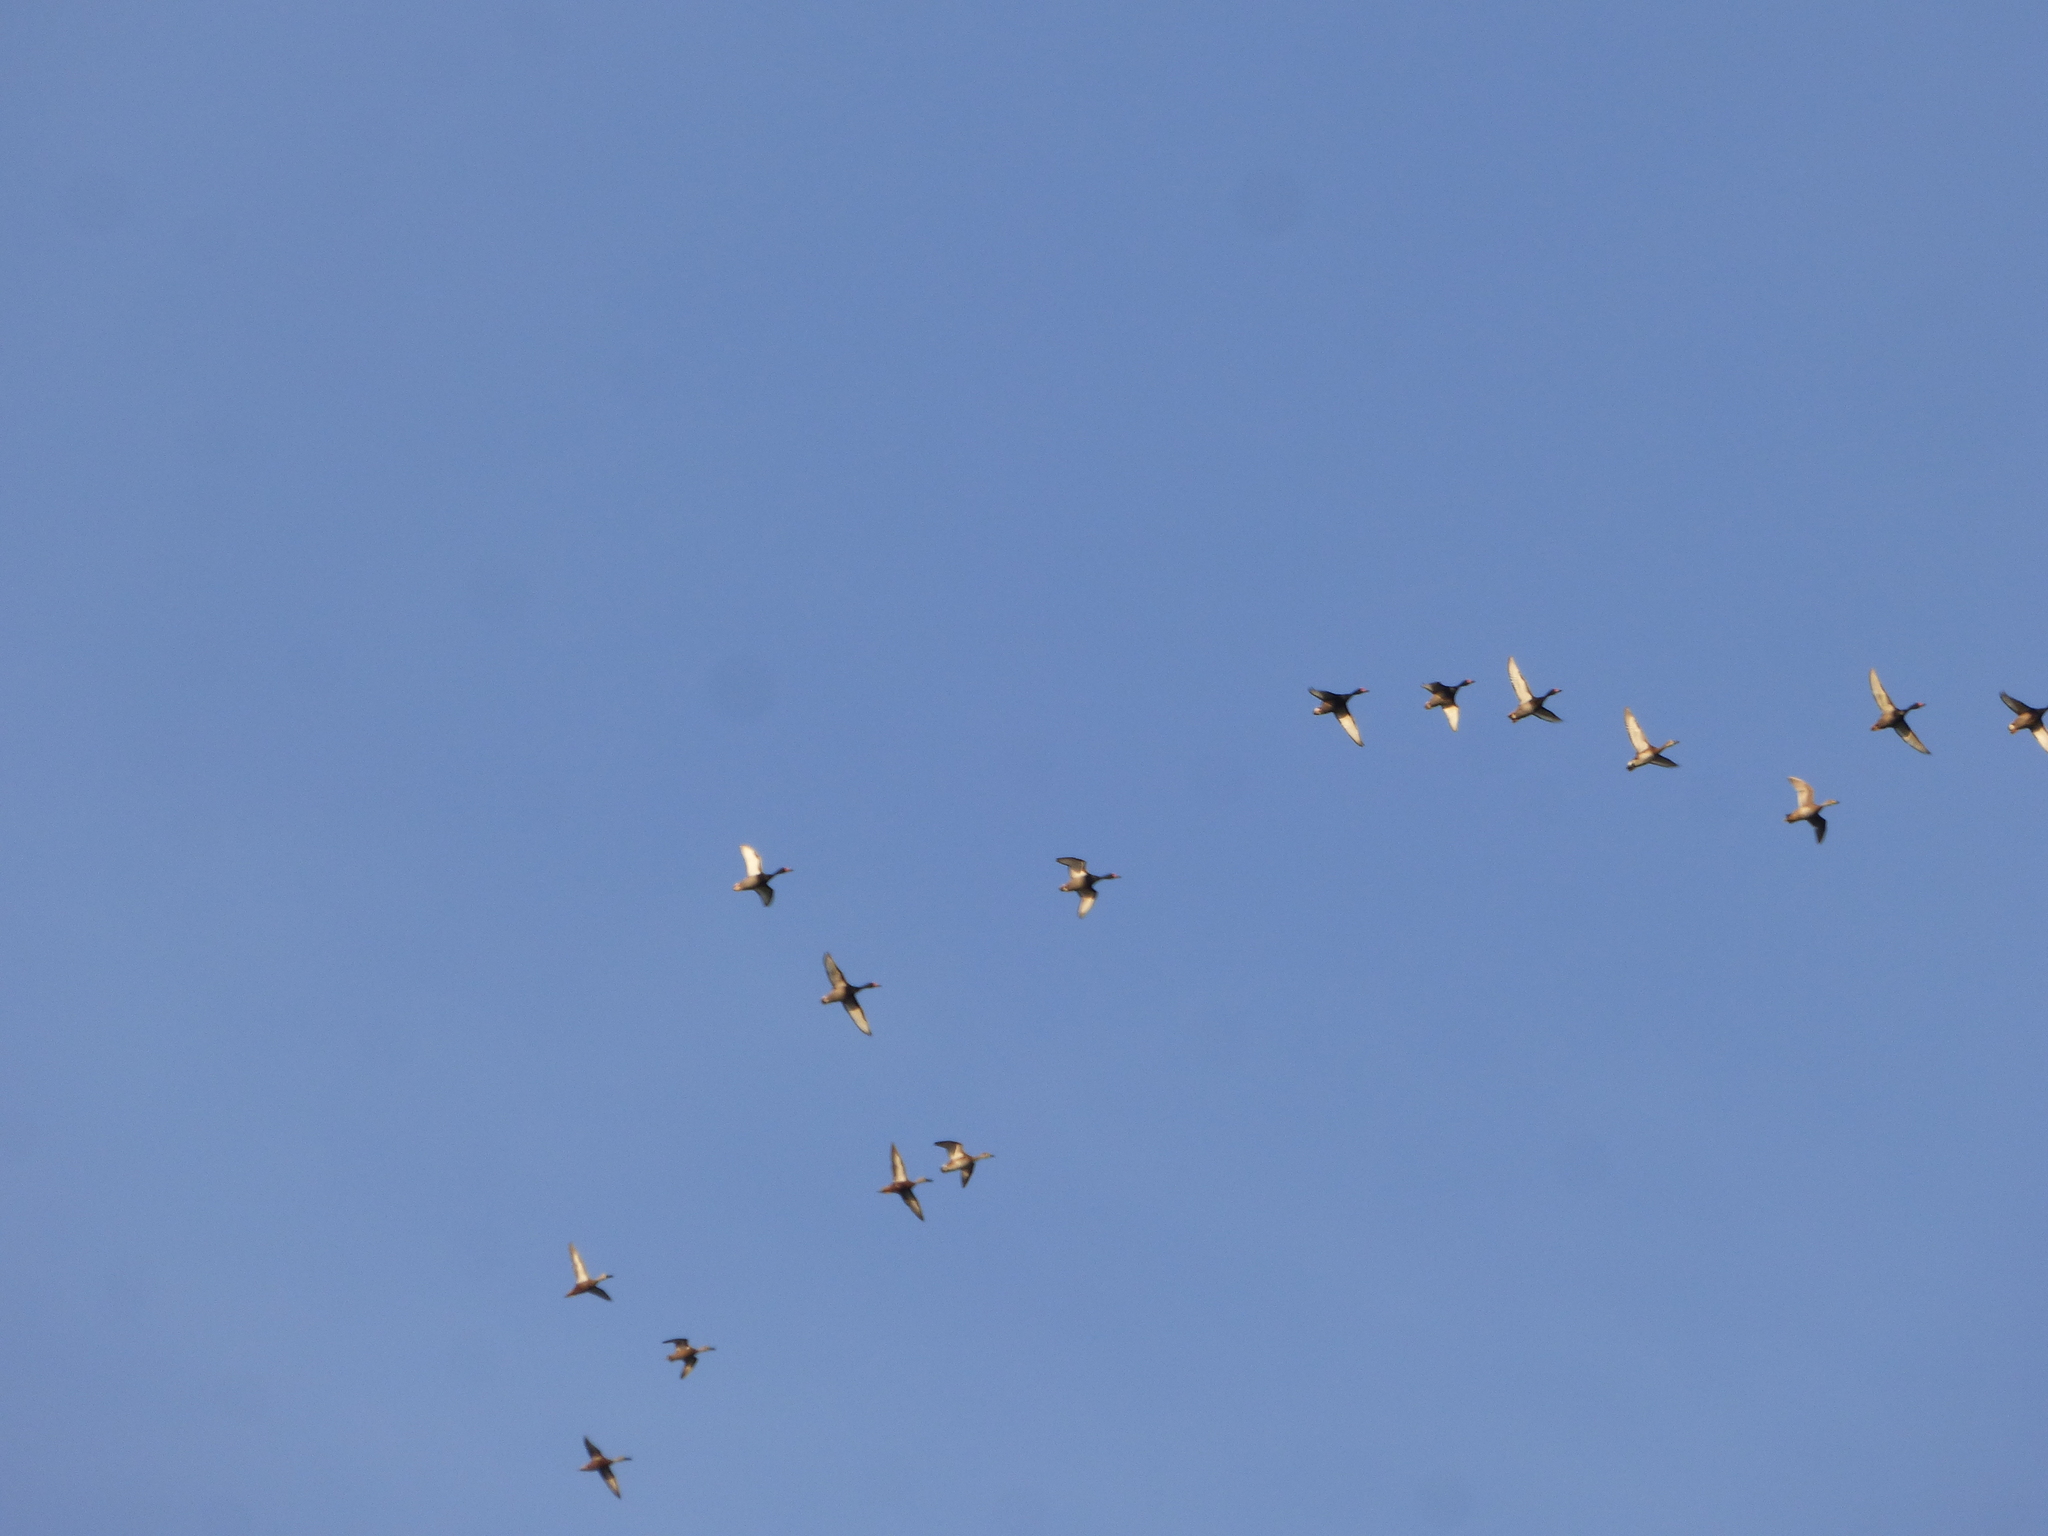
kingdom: Animalia
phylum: Chordata
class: Aves
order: Anseriformes
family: Anatidae
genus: Netta
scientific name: Netta peposaca
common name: Rosy-billed pochard
